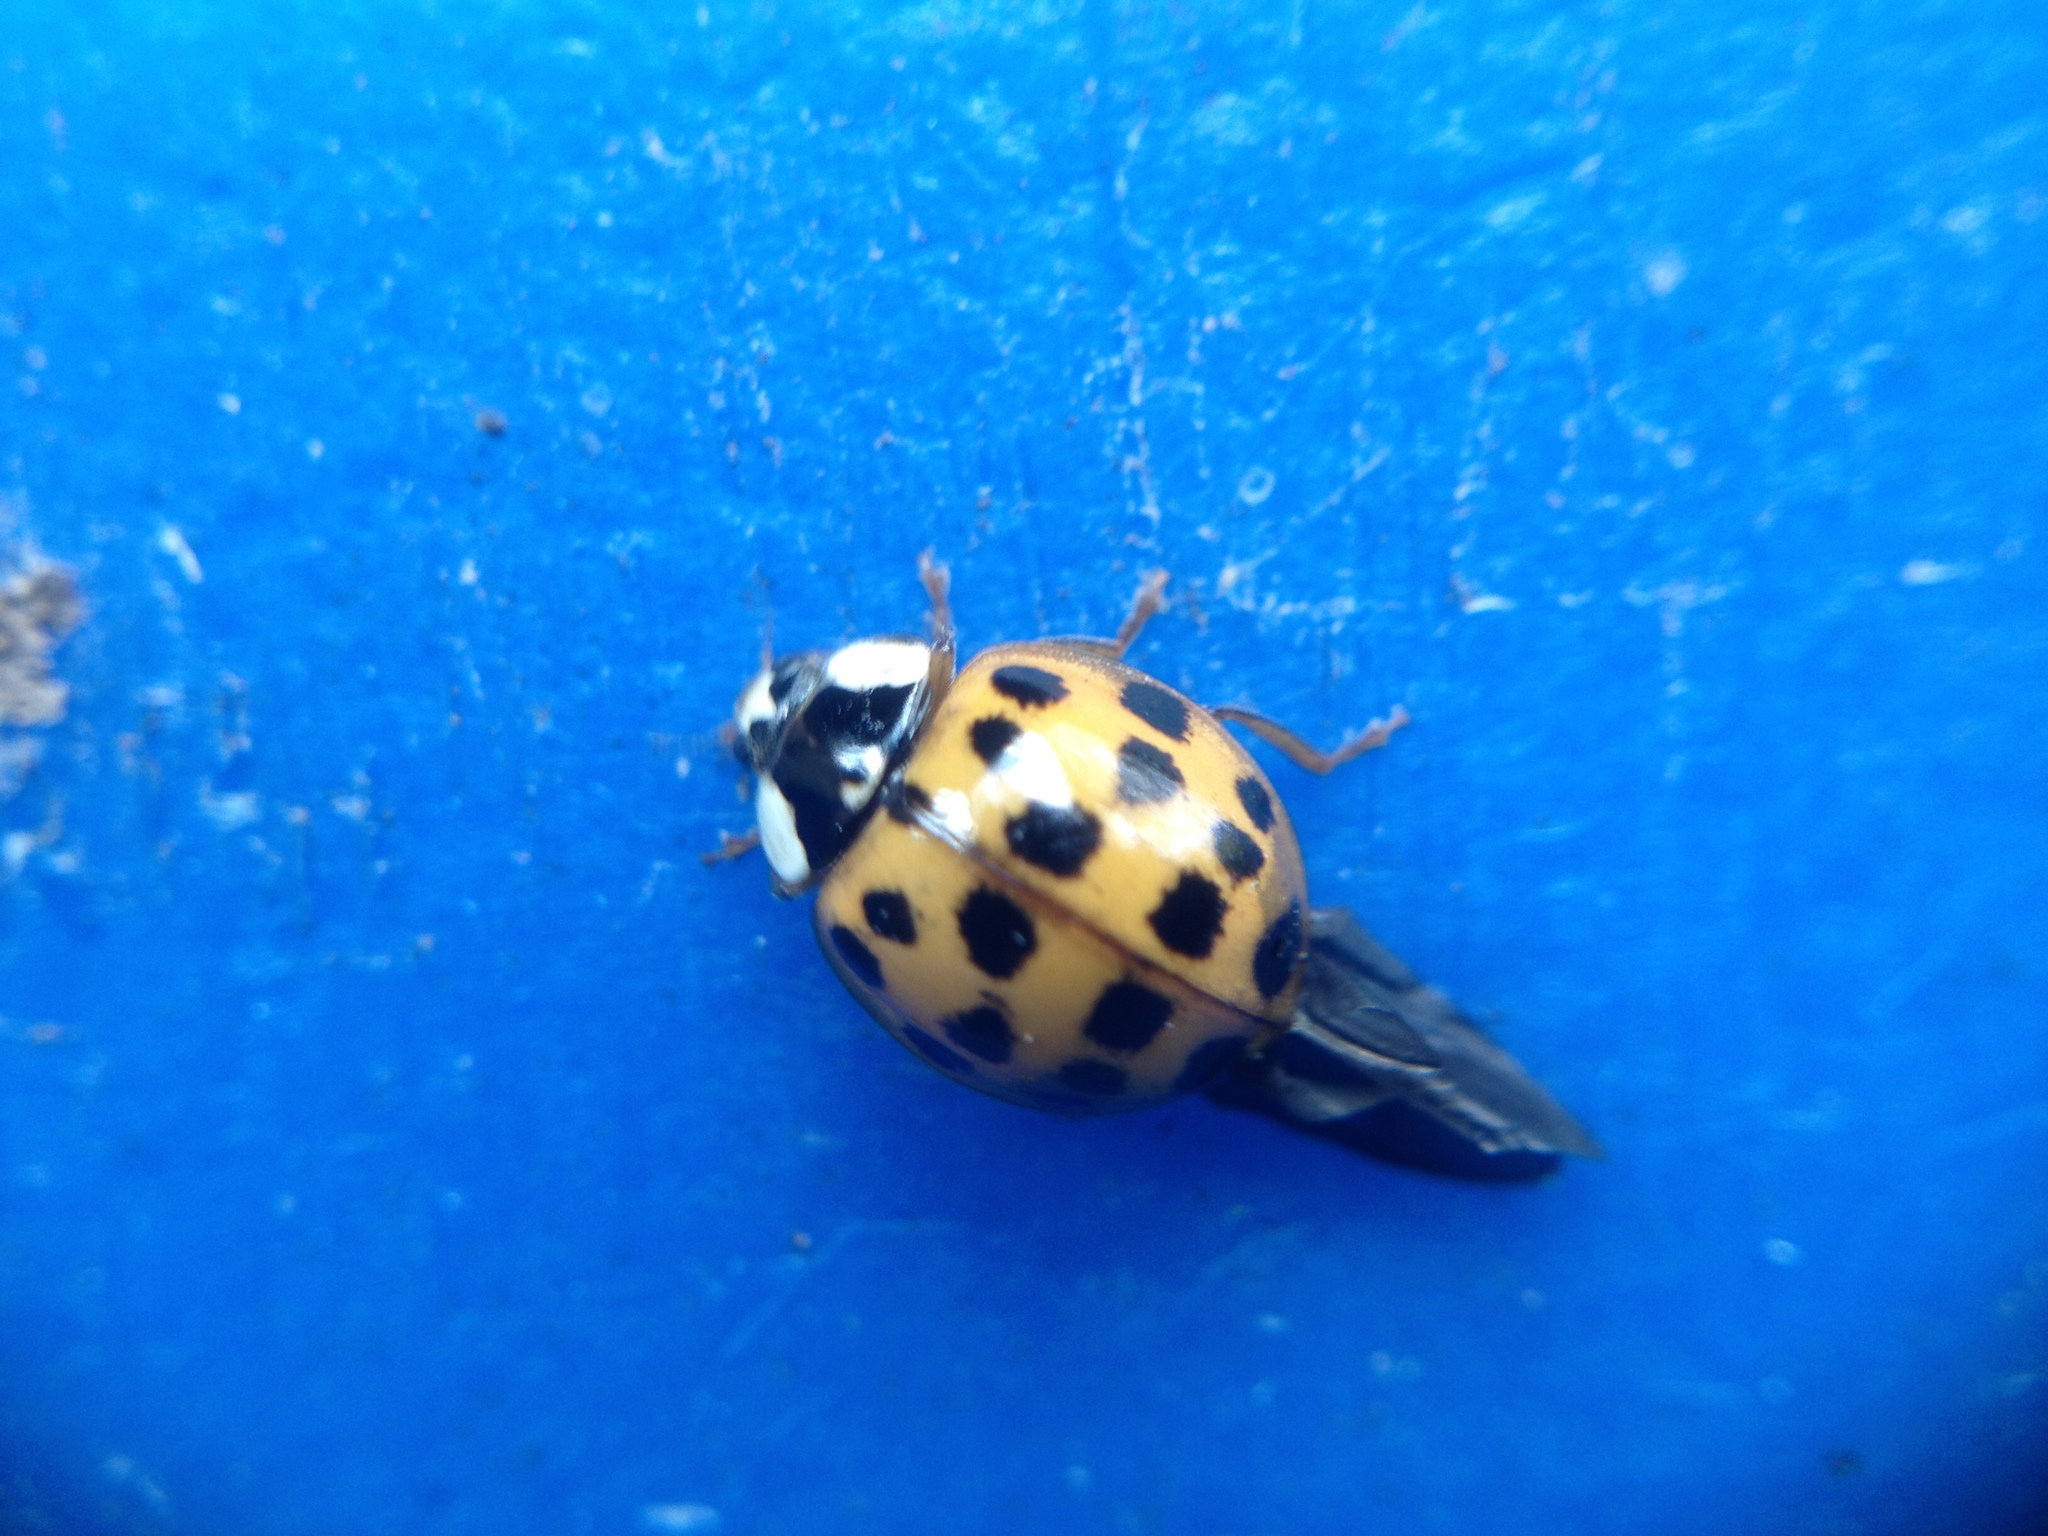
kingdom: Animalia
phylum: Arthropoda
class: Insecta
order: Coleoptera
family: Coccinellidae
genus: Harmonia
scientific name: Harmonia axyridis
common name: Harlequin ladybird
